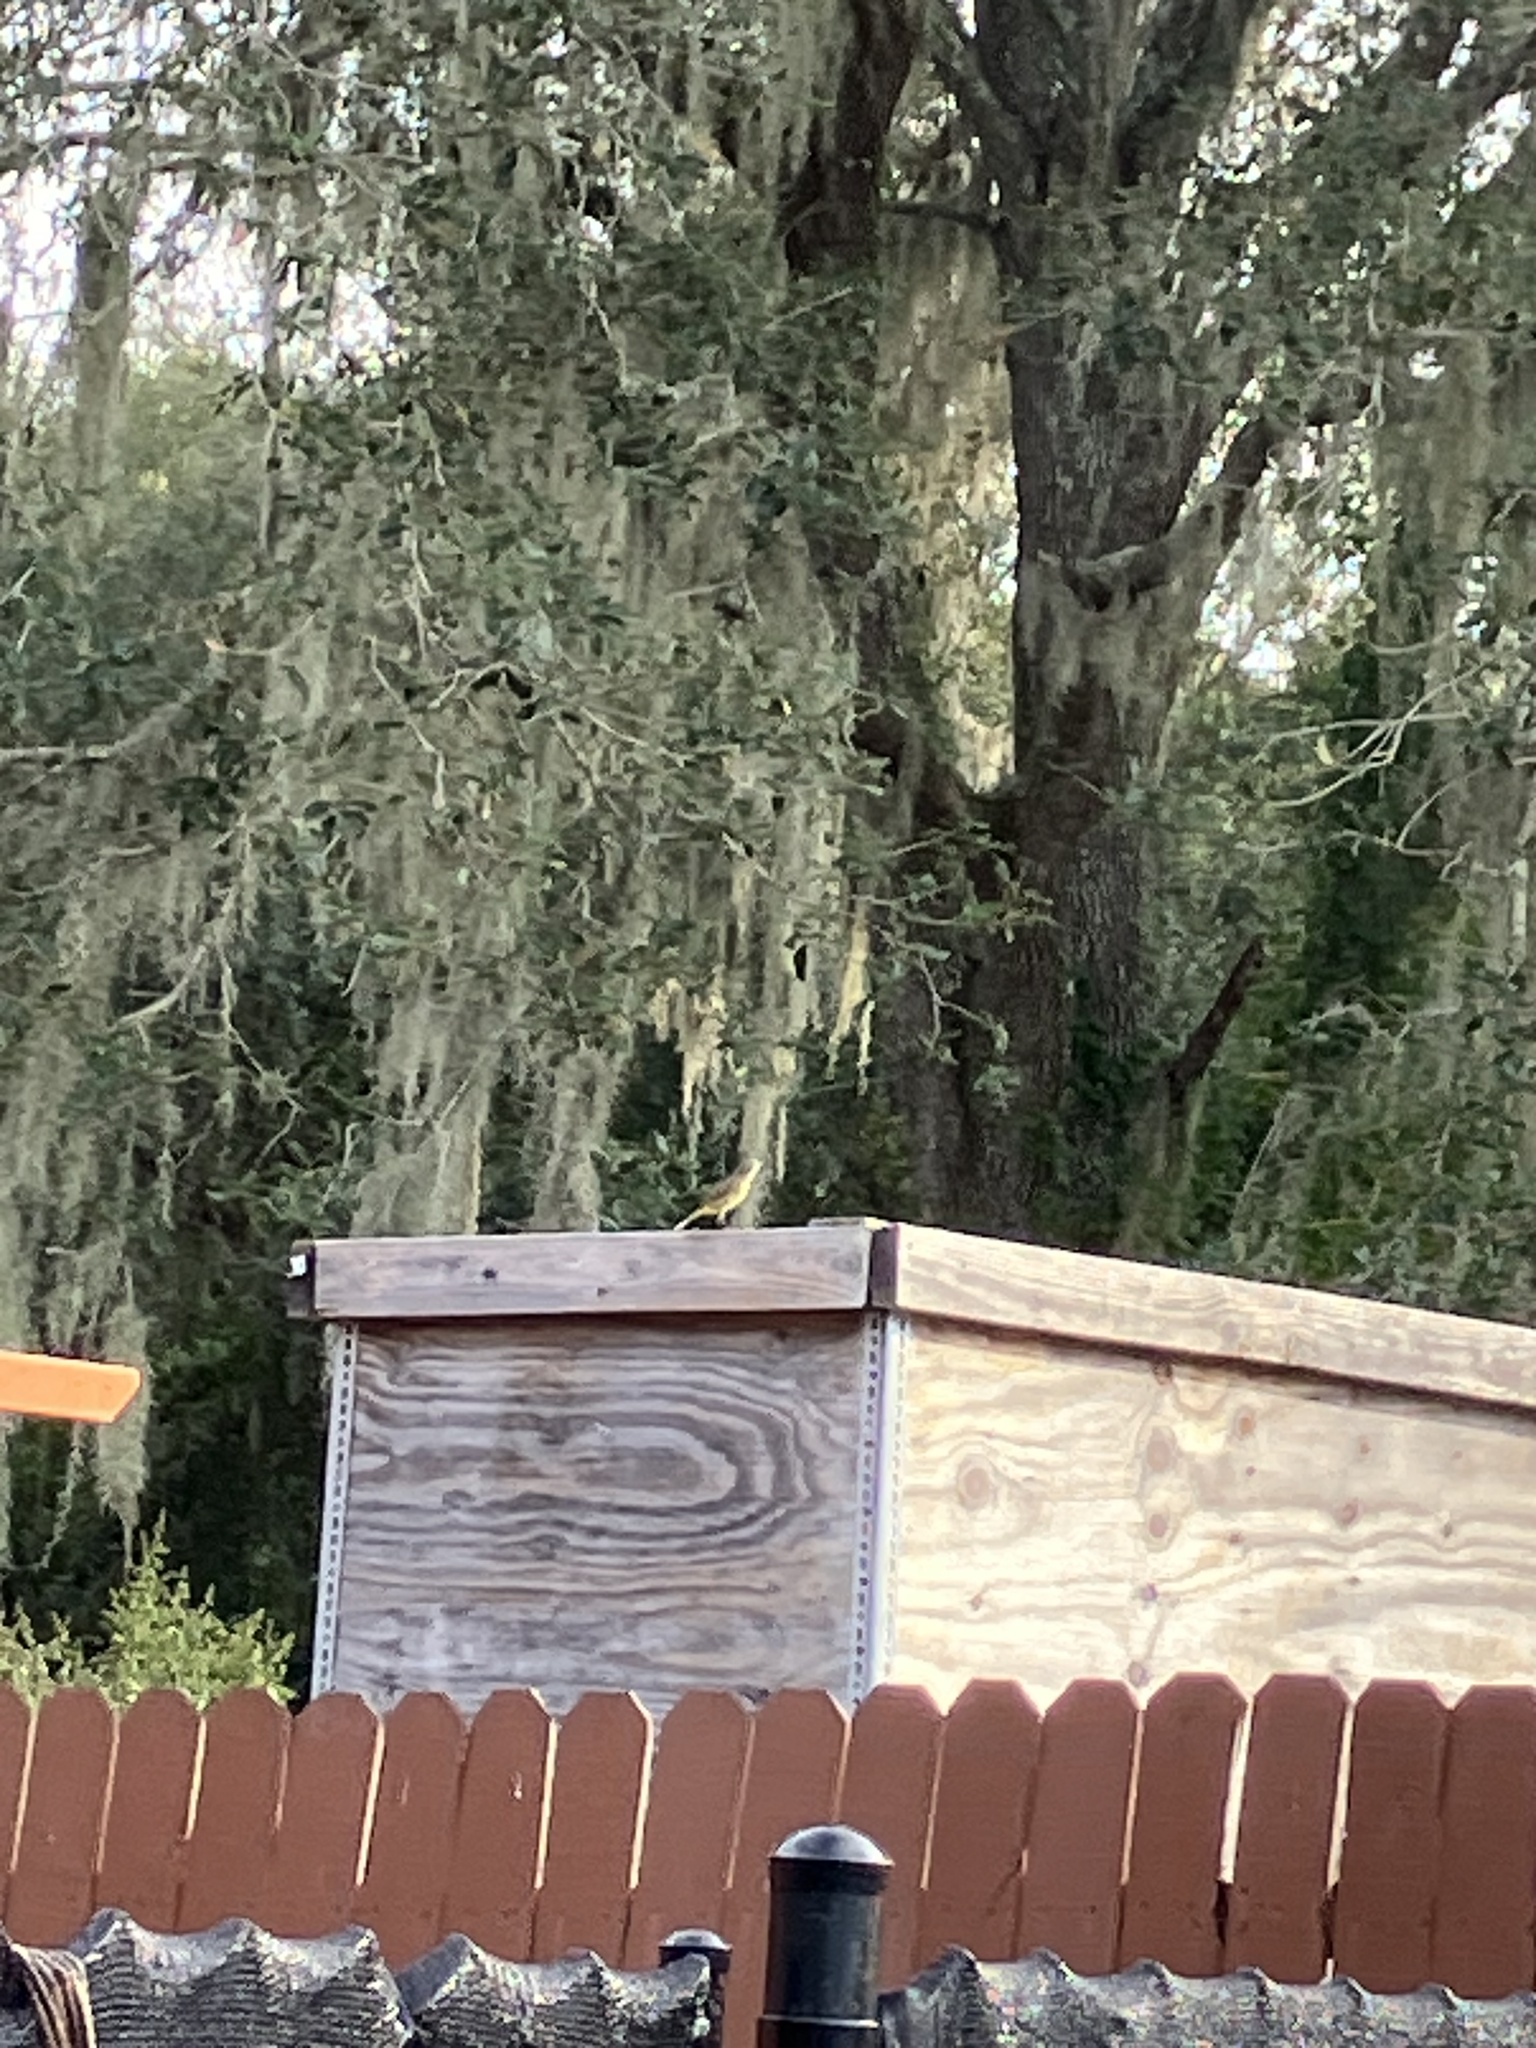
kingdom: Animalia
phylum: Chordata
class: Aves
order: Passeriformes
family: Parulidae
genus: Setophaga
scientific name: Setophaga palmarum
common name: Palm warbler
